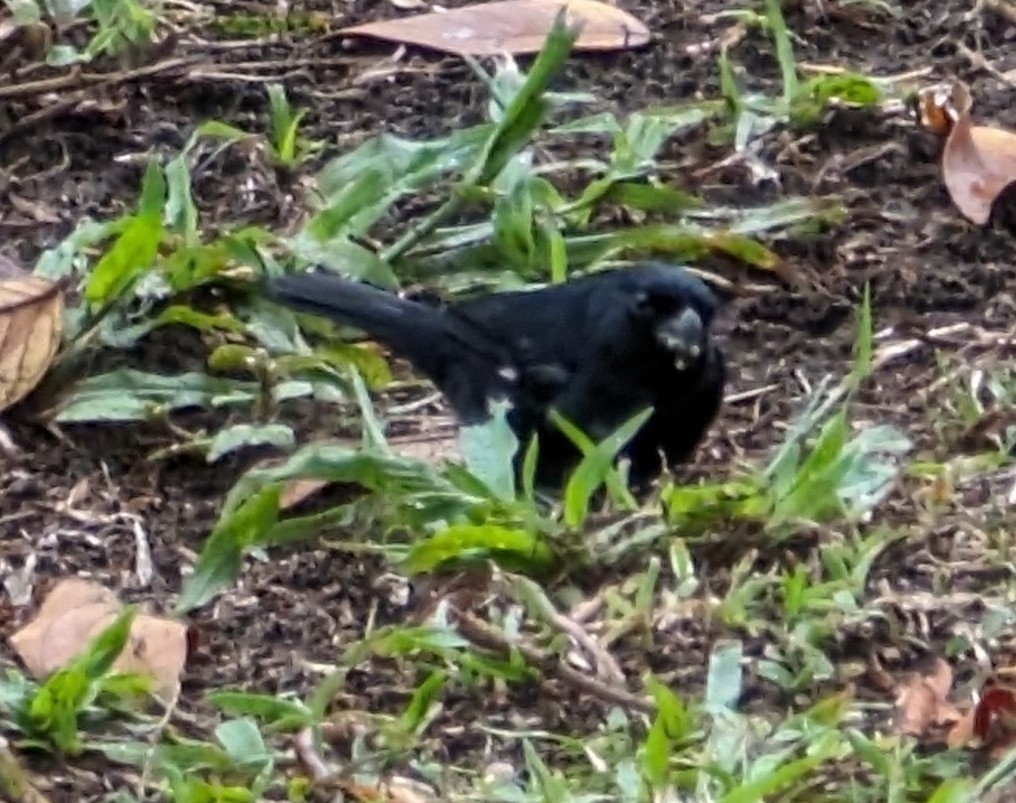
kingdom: Animalia
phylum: Chordata
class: Aves
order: Passeriformes
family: Thraupidae
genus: Sporophila
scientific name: Sporophila corvina
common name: Variable seedeater
